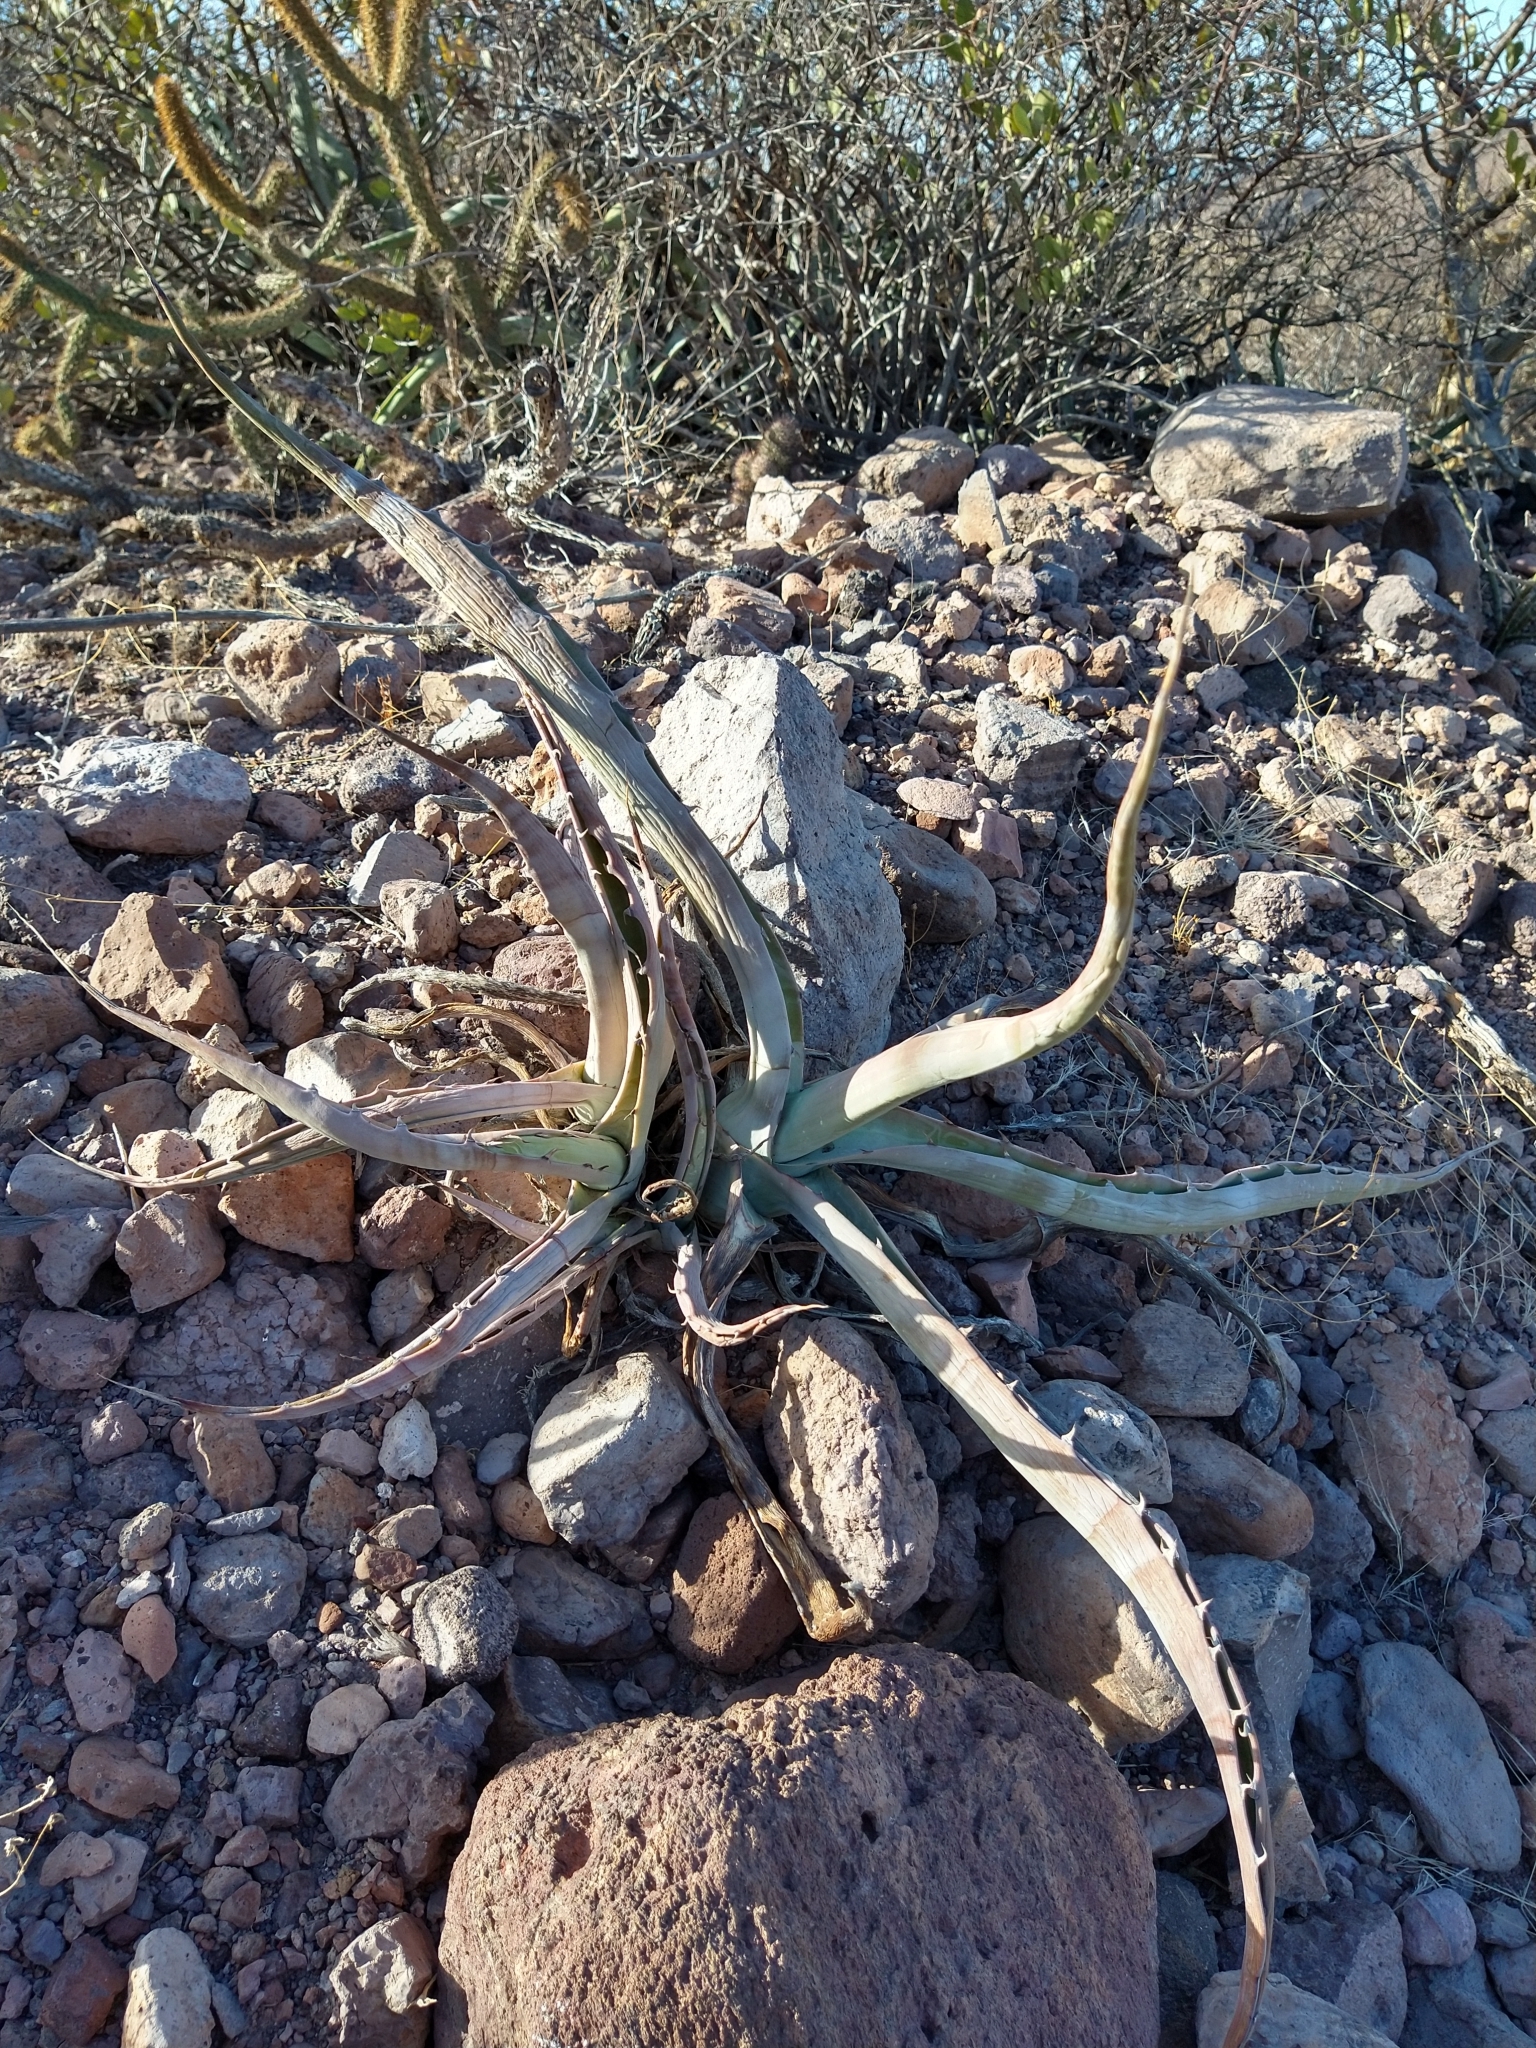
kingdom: Plantae
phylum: Tracheophyta
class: Liliopsida
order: Asparagales
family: Asparagaceae
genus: Agave
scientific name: Agave sobria
